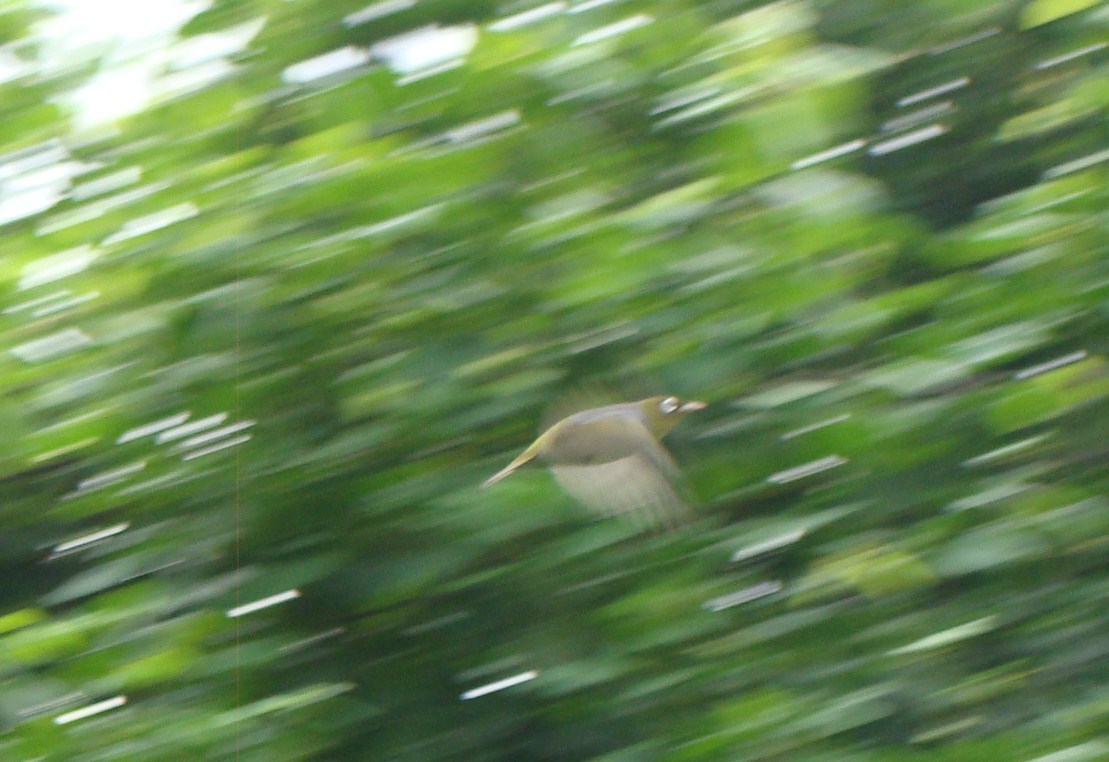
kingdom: Animalia
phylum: Chordata
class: Aves
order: Passeriformes
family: Zosteropidae
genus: Zosterops
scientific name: Zosterops lateralis
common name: Silvereye
